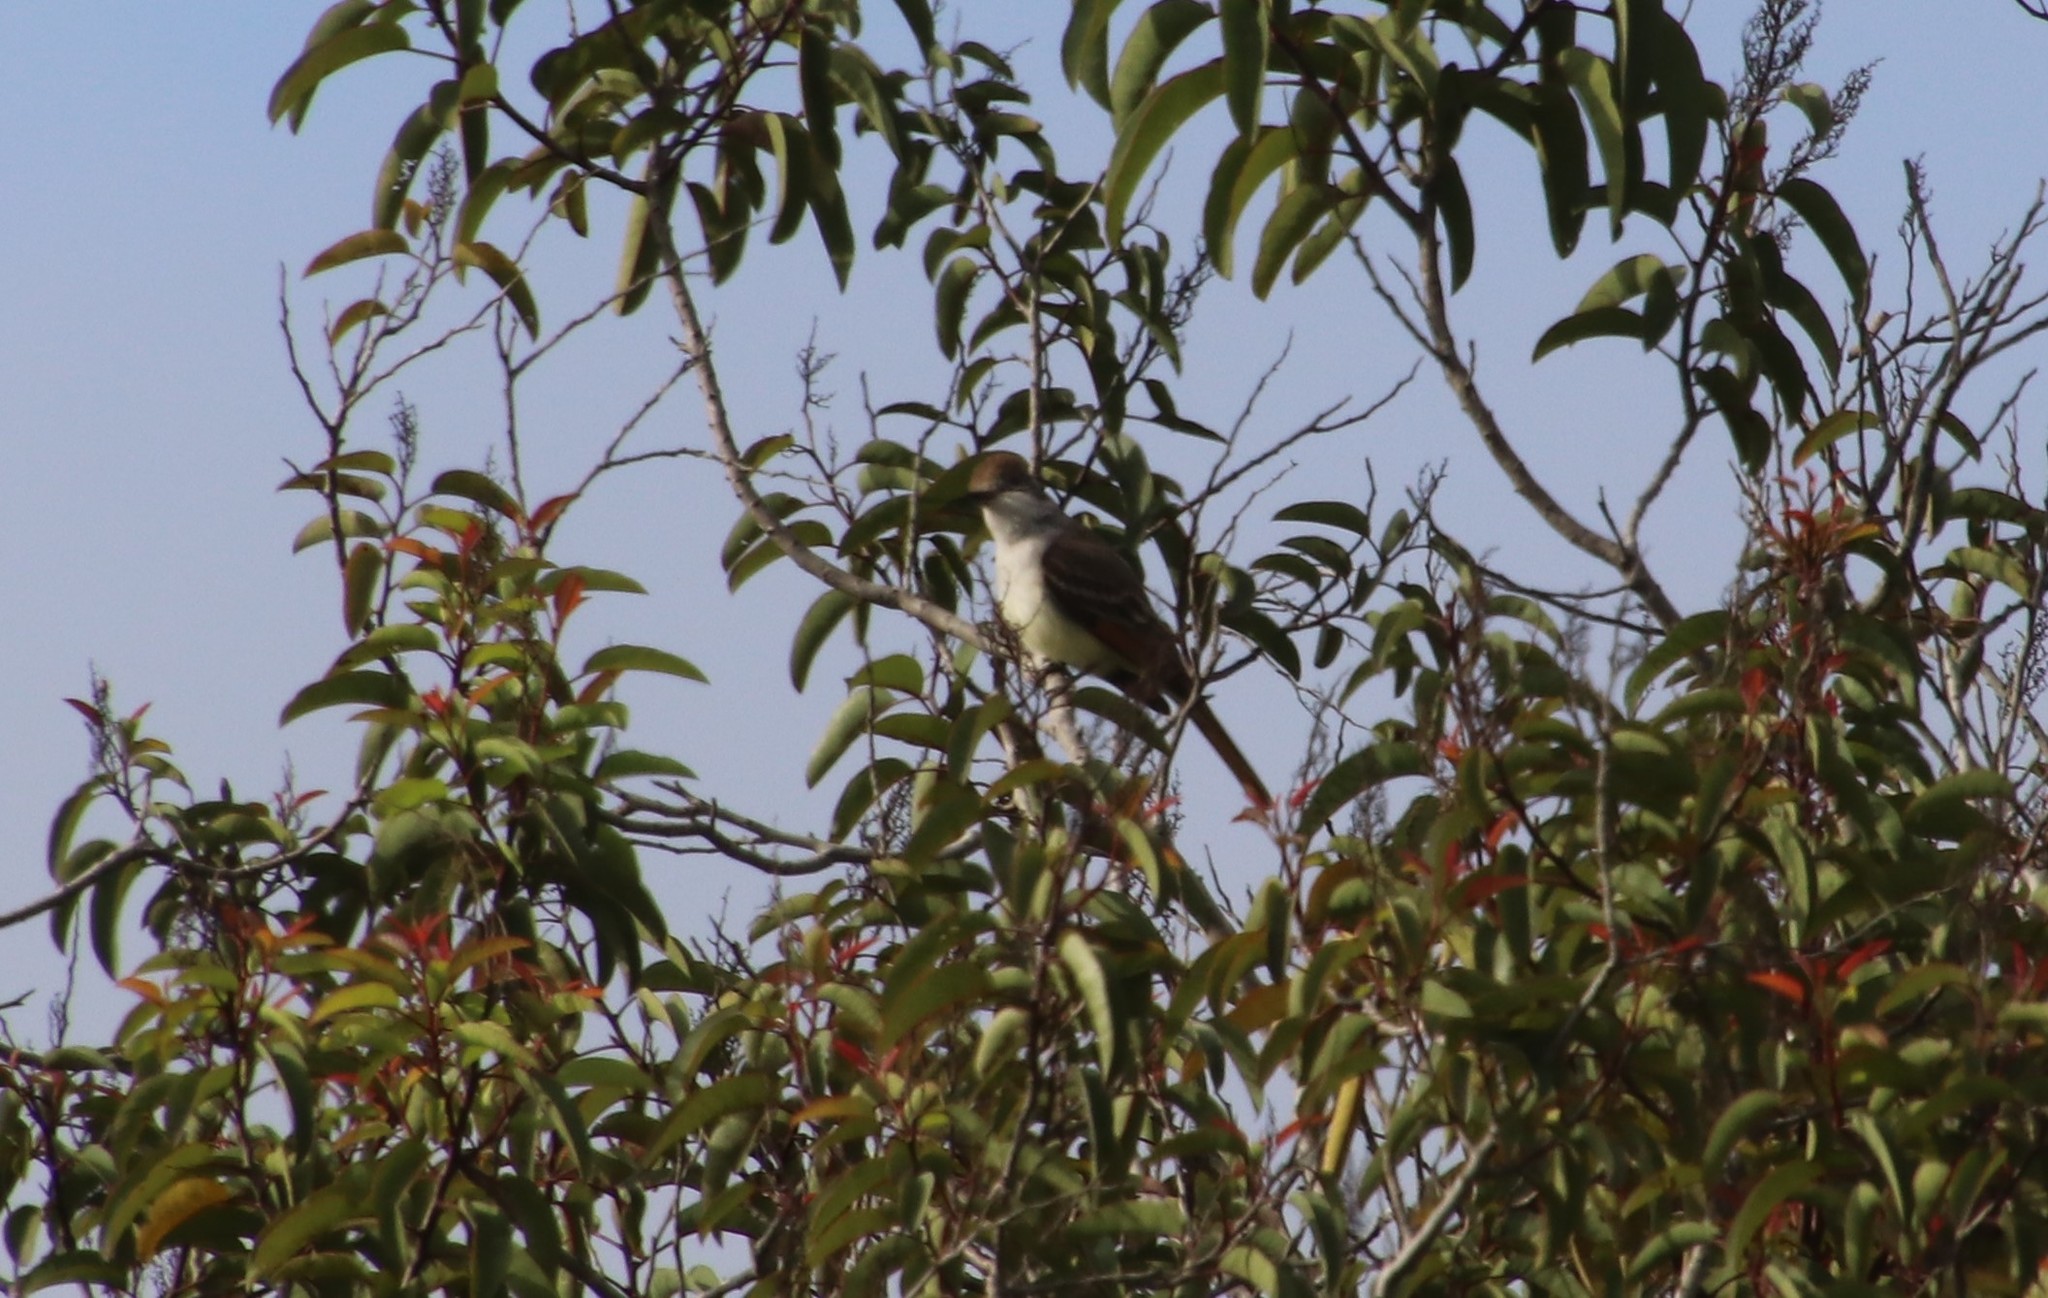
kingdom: Animalia
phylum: Chordata
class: Aves
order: Passeriformes
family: Tyrannidae
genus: Myiarchus
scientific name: Myiarchus cinerascens
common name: Ash-throated flycatcher
